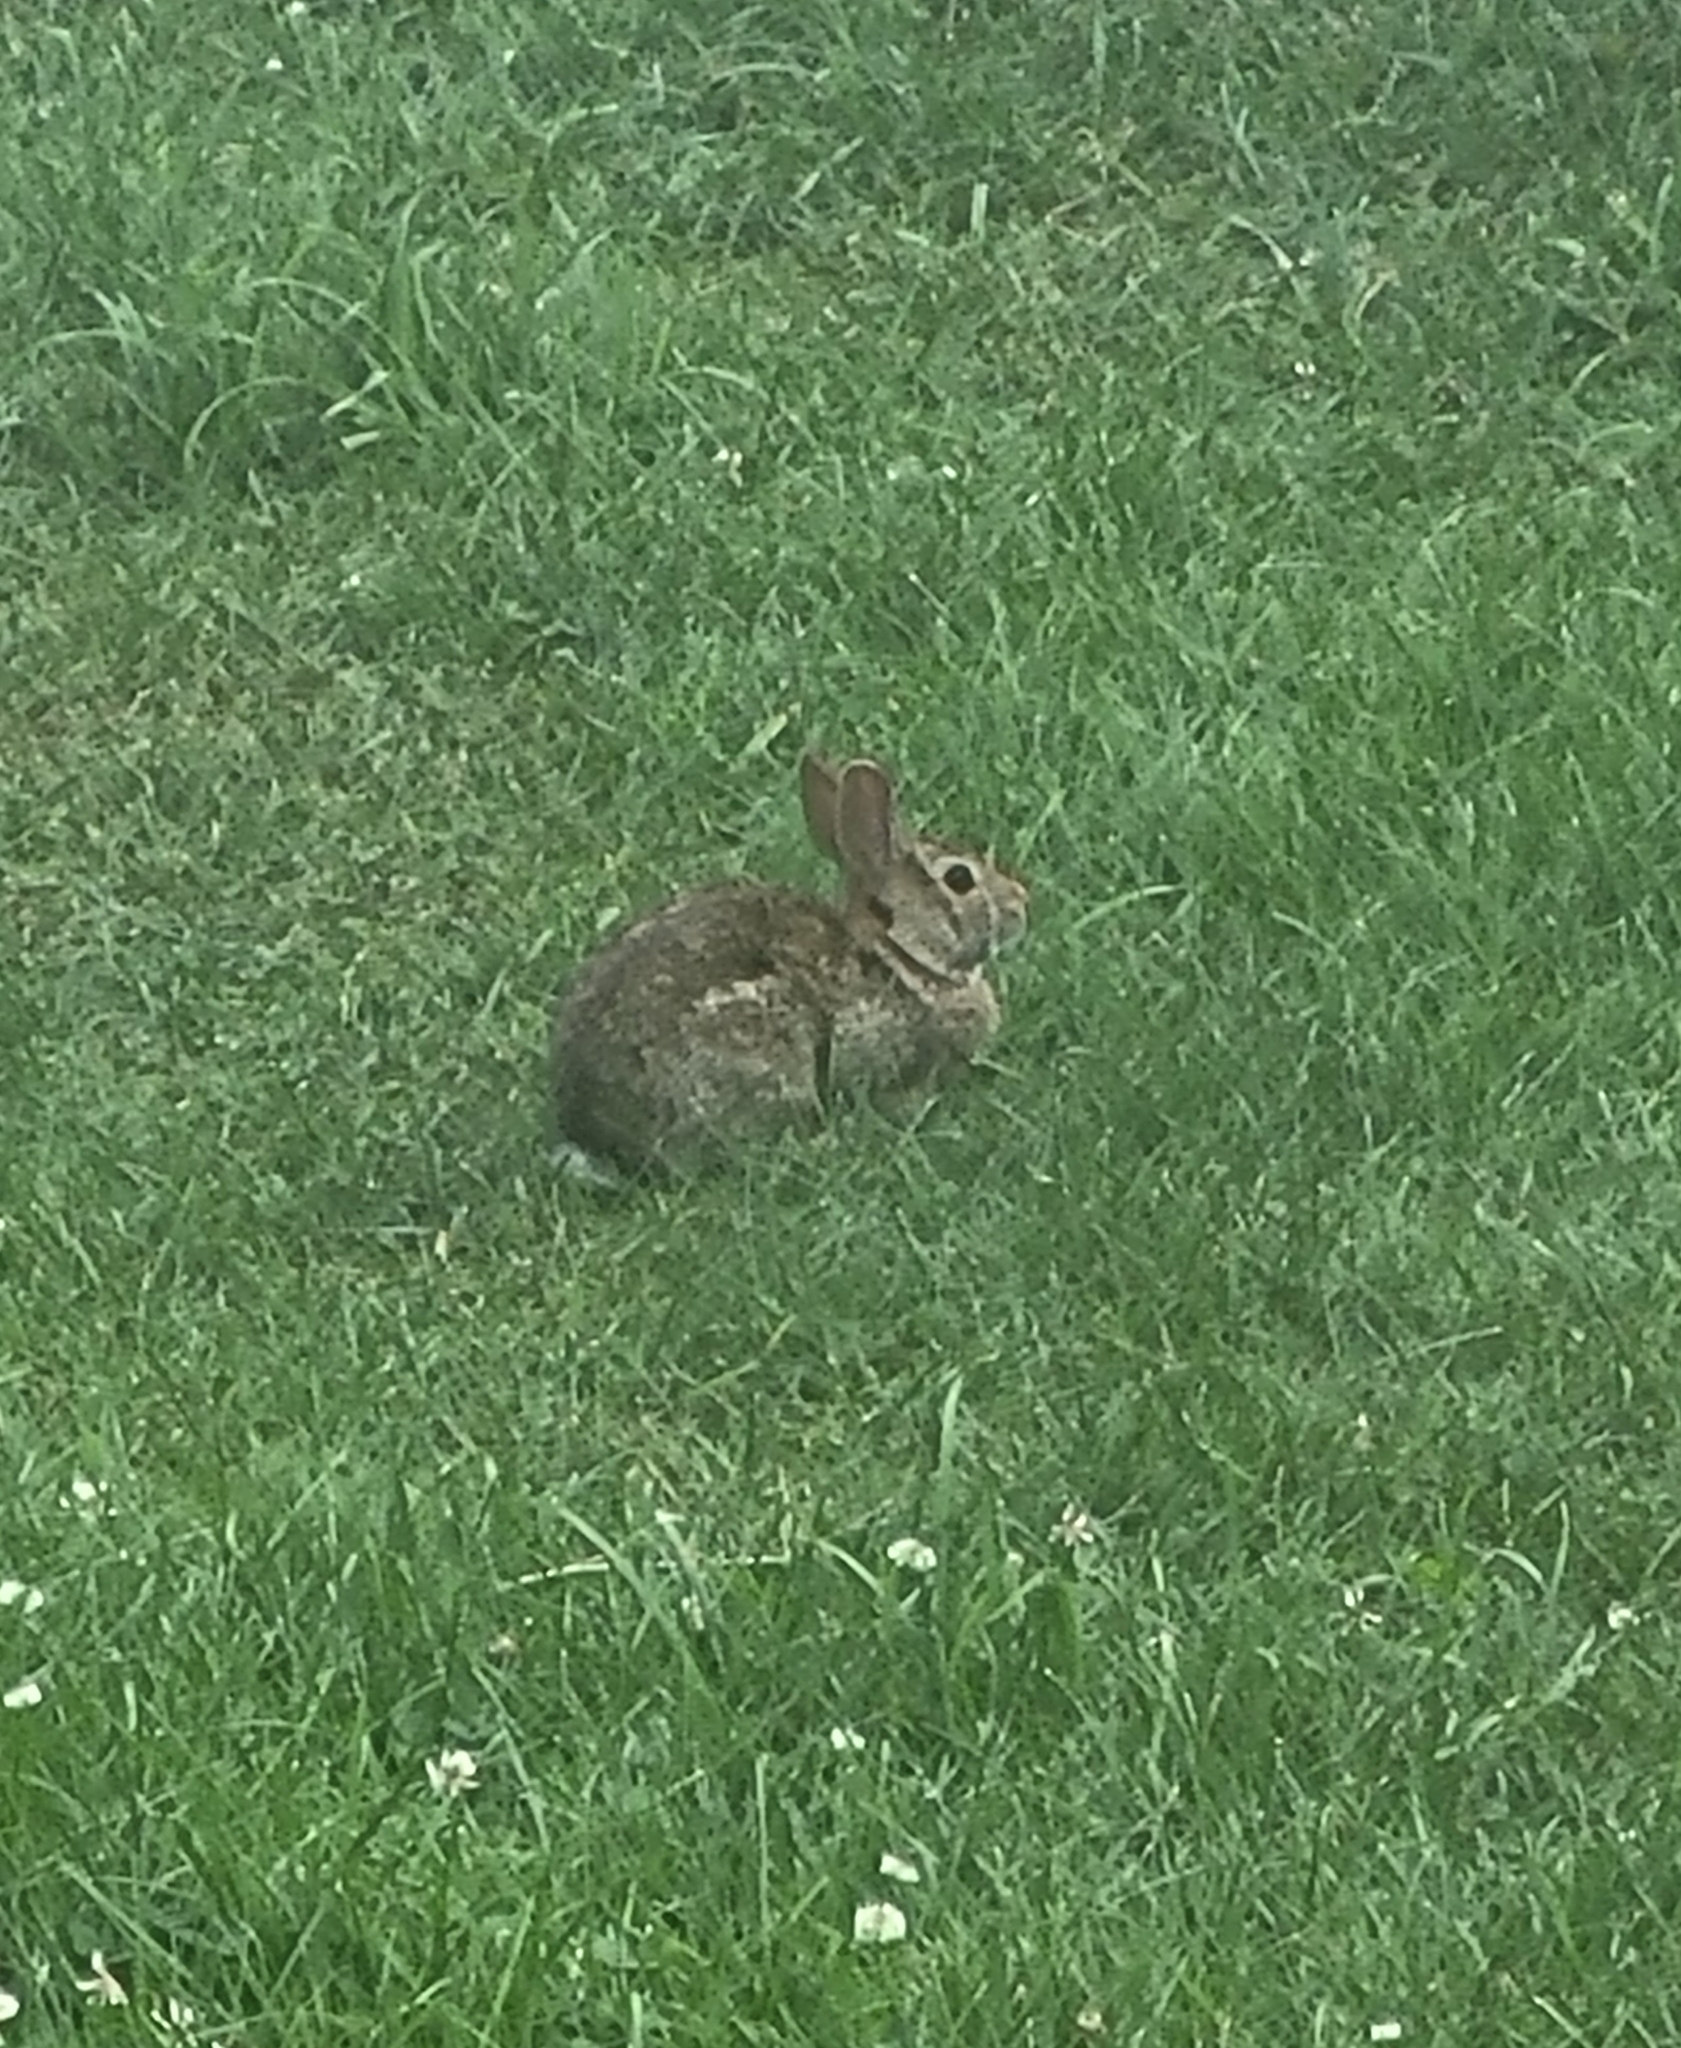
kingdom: Animalia
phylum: Chordata
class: Mammalia
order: Lagomorpha
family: Leporidae
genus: Sylvilagus
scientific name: Sylvilagus floridanus
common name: Eastern cottontail
